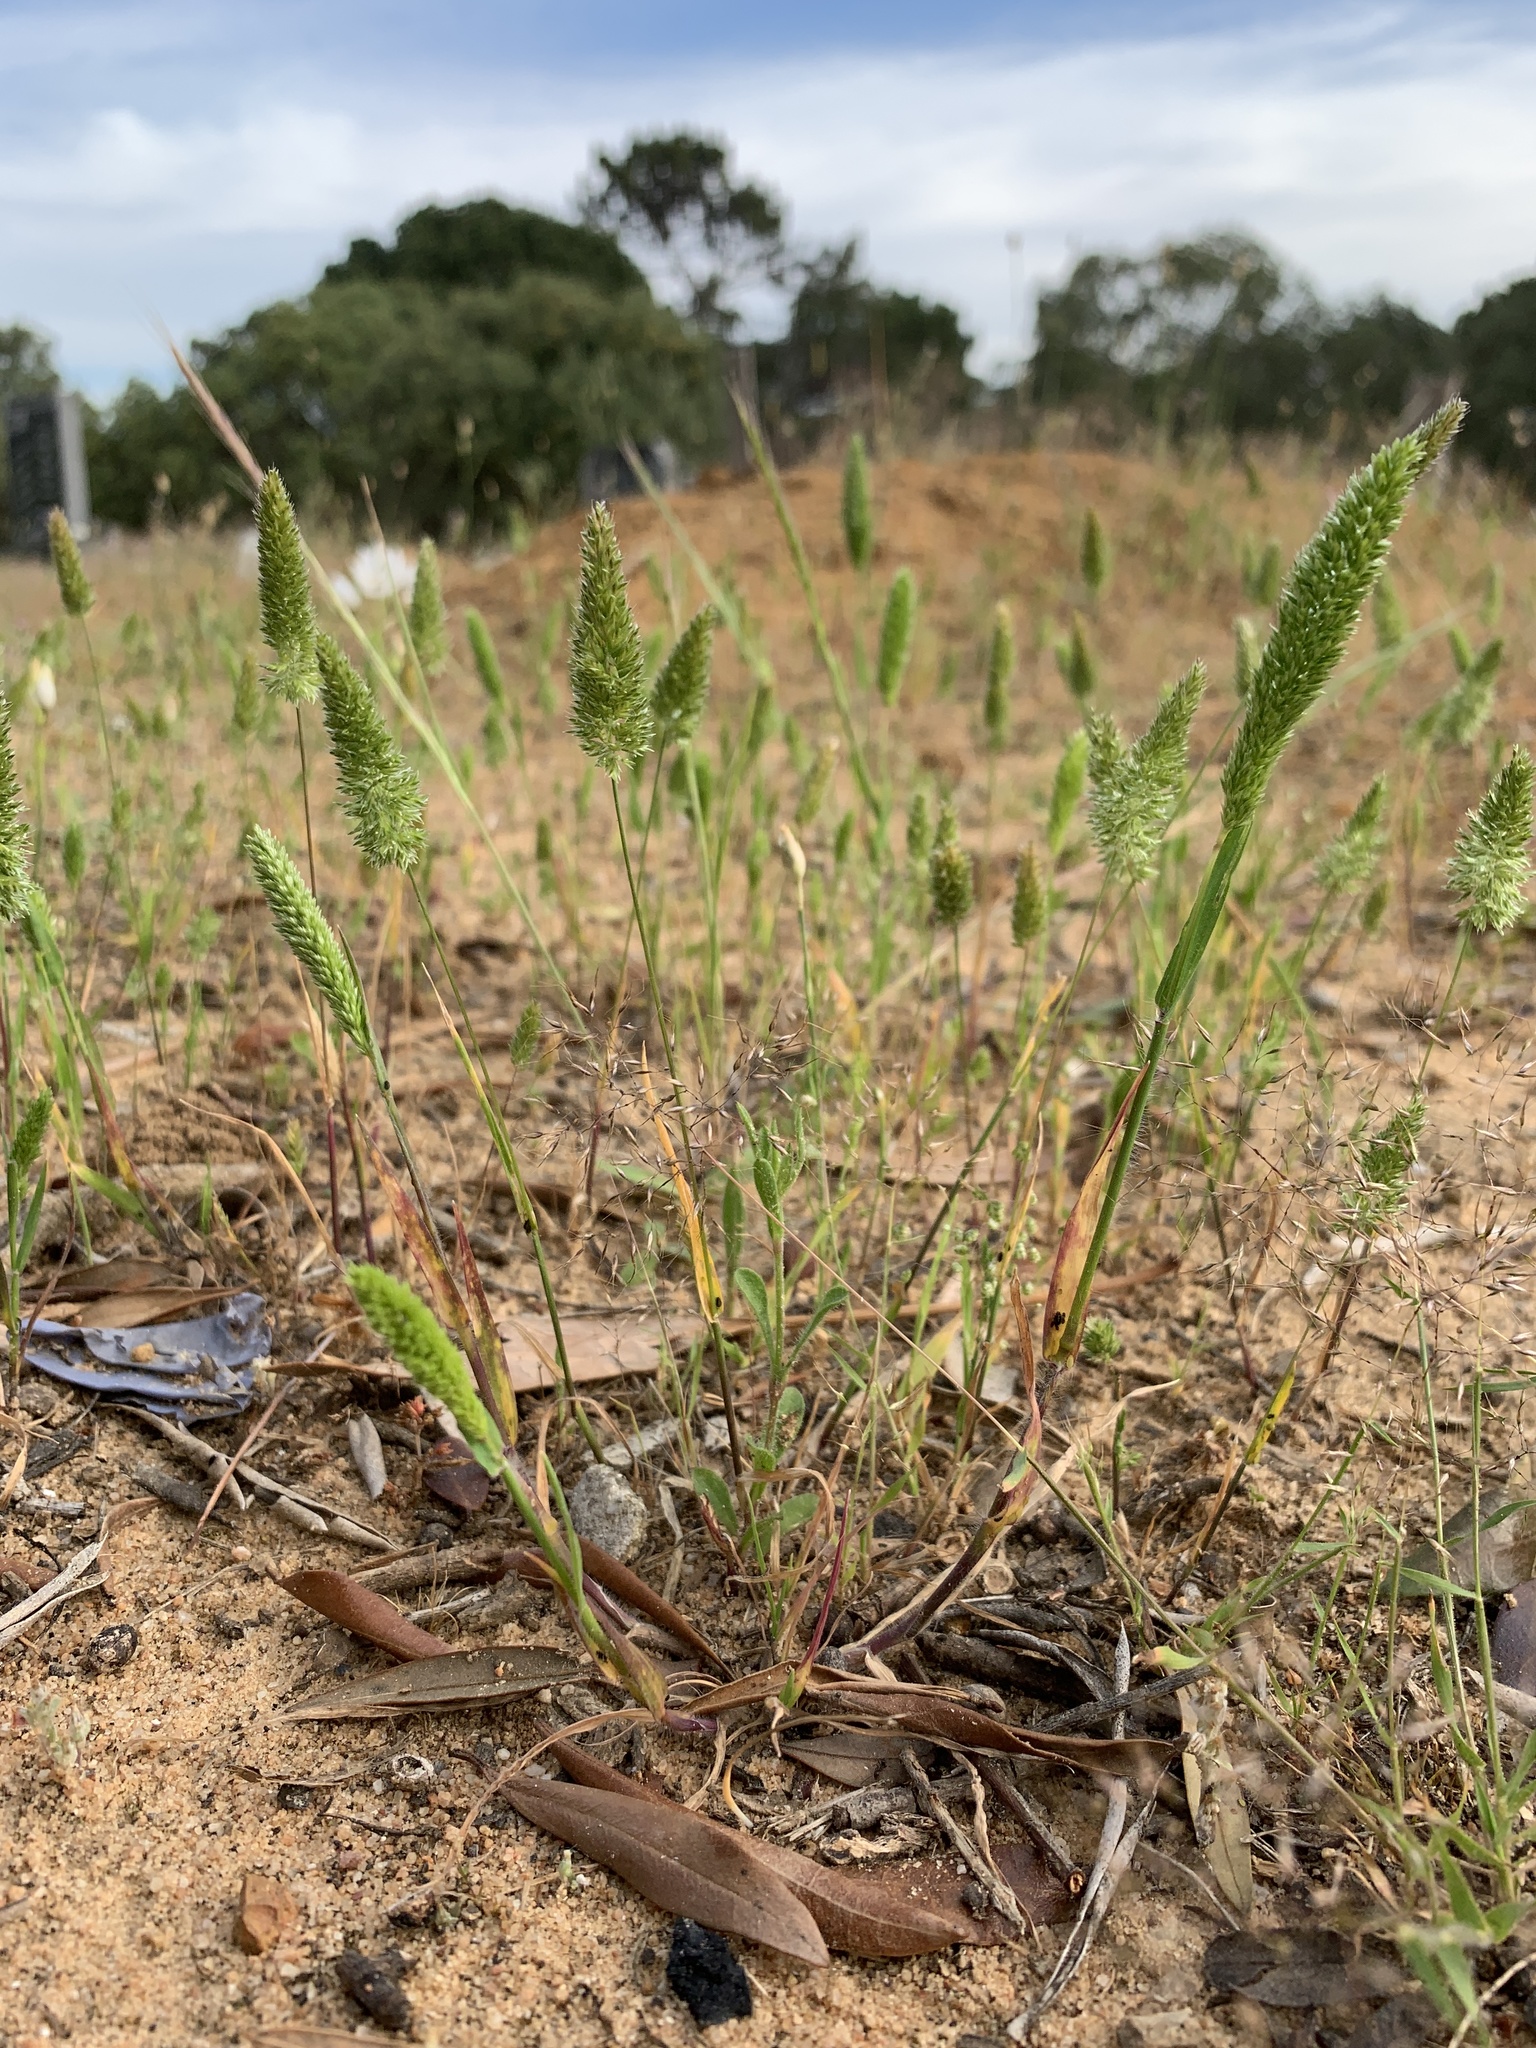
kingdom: Plantae
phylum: Tracheophyta
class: Liliopsida
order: Poales
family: Poaceae
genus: Rostraria
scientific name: Rostraria cristata
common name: Mediterranean hair-grass
